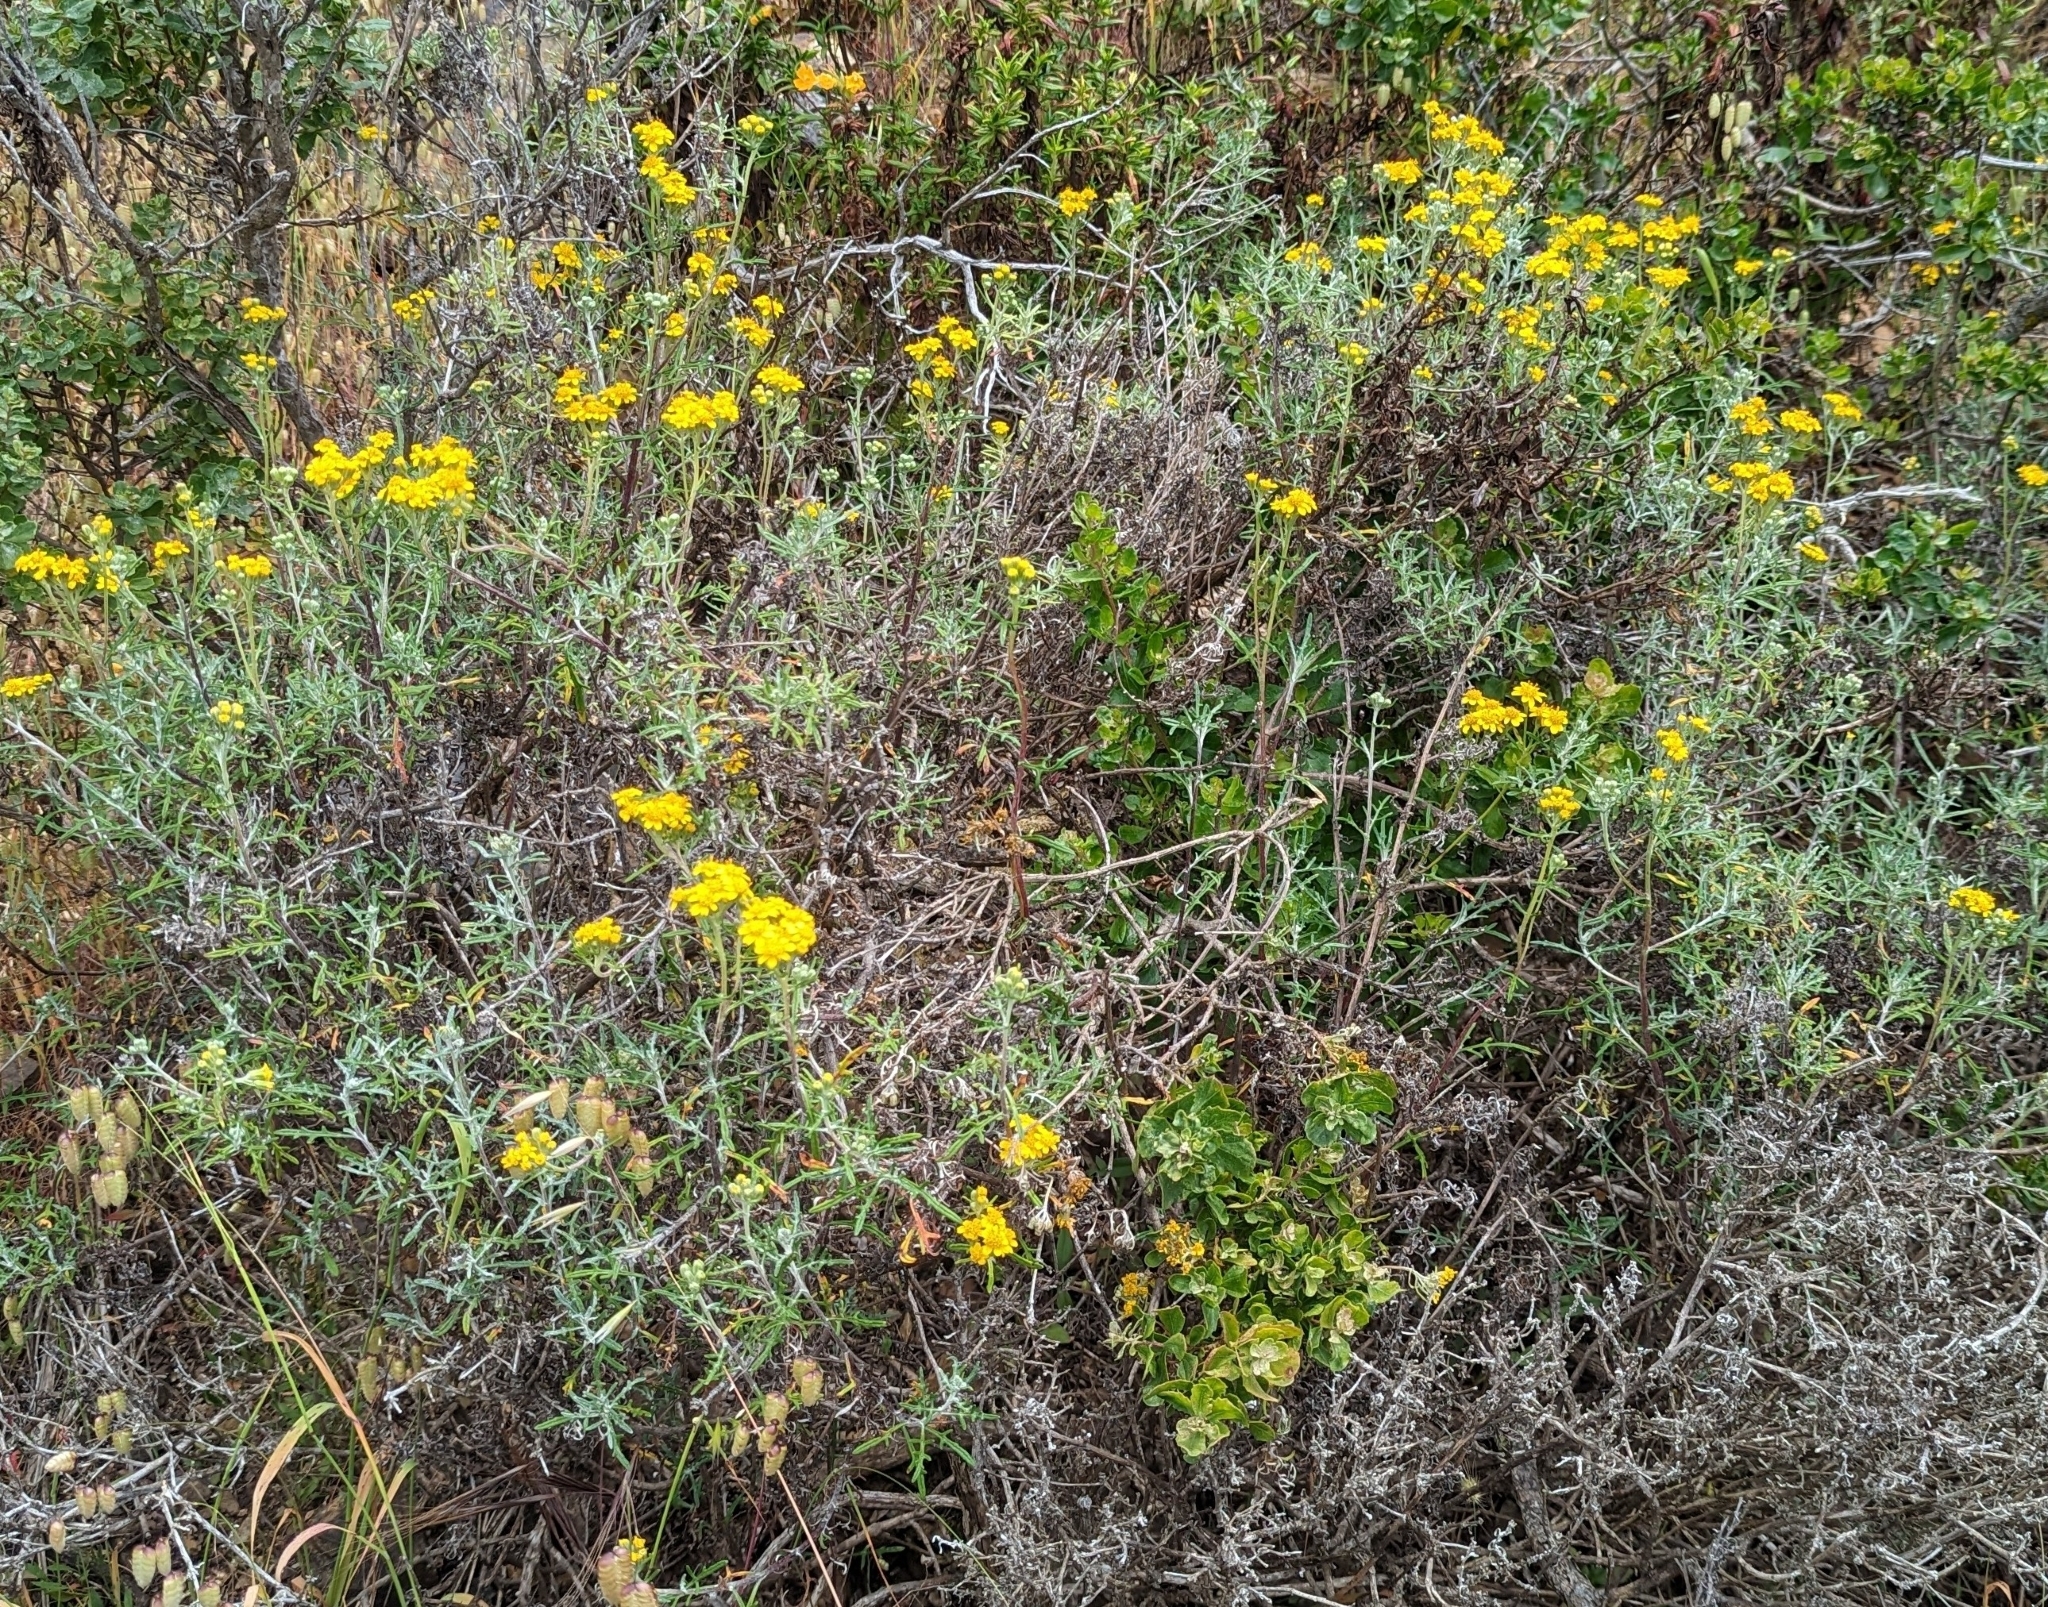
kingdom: Plantae
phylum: Tracheophyta
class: Magnoliopsida
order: Asterales
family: Asteraceae
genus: Eriophyllum
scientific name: Eriophyllum staechadifolium
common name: Lizardtail
